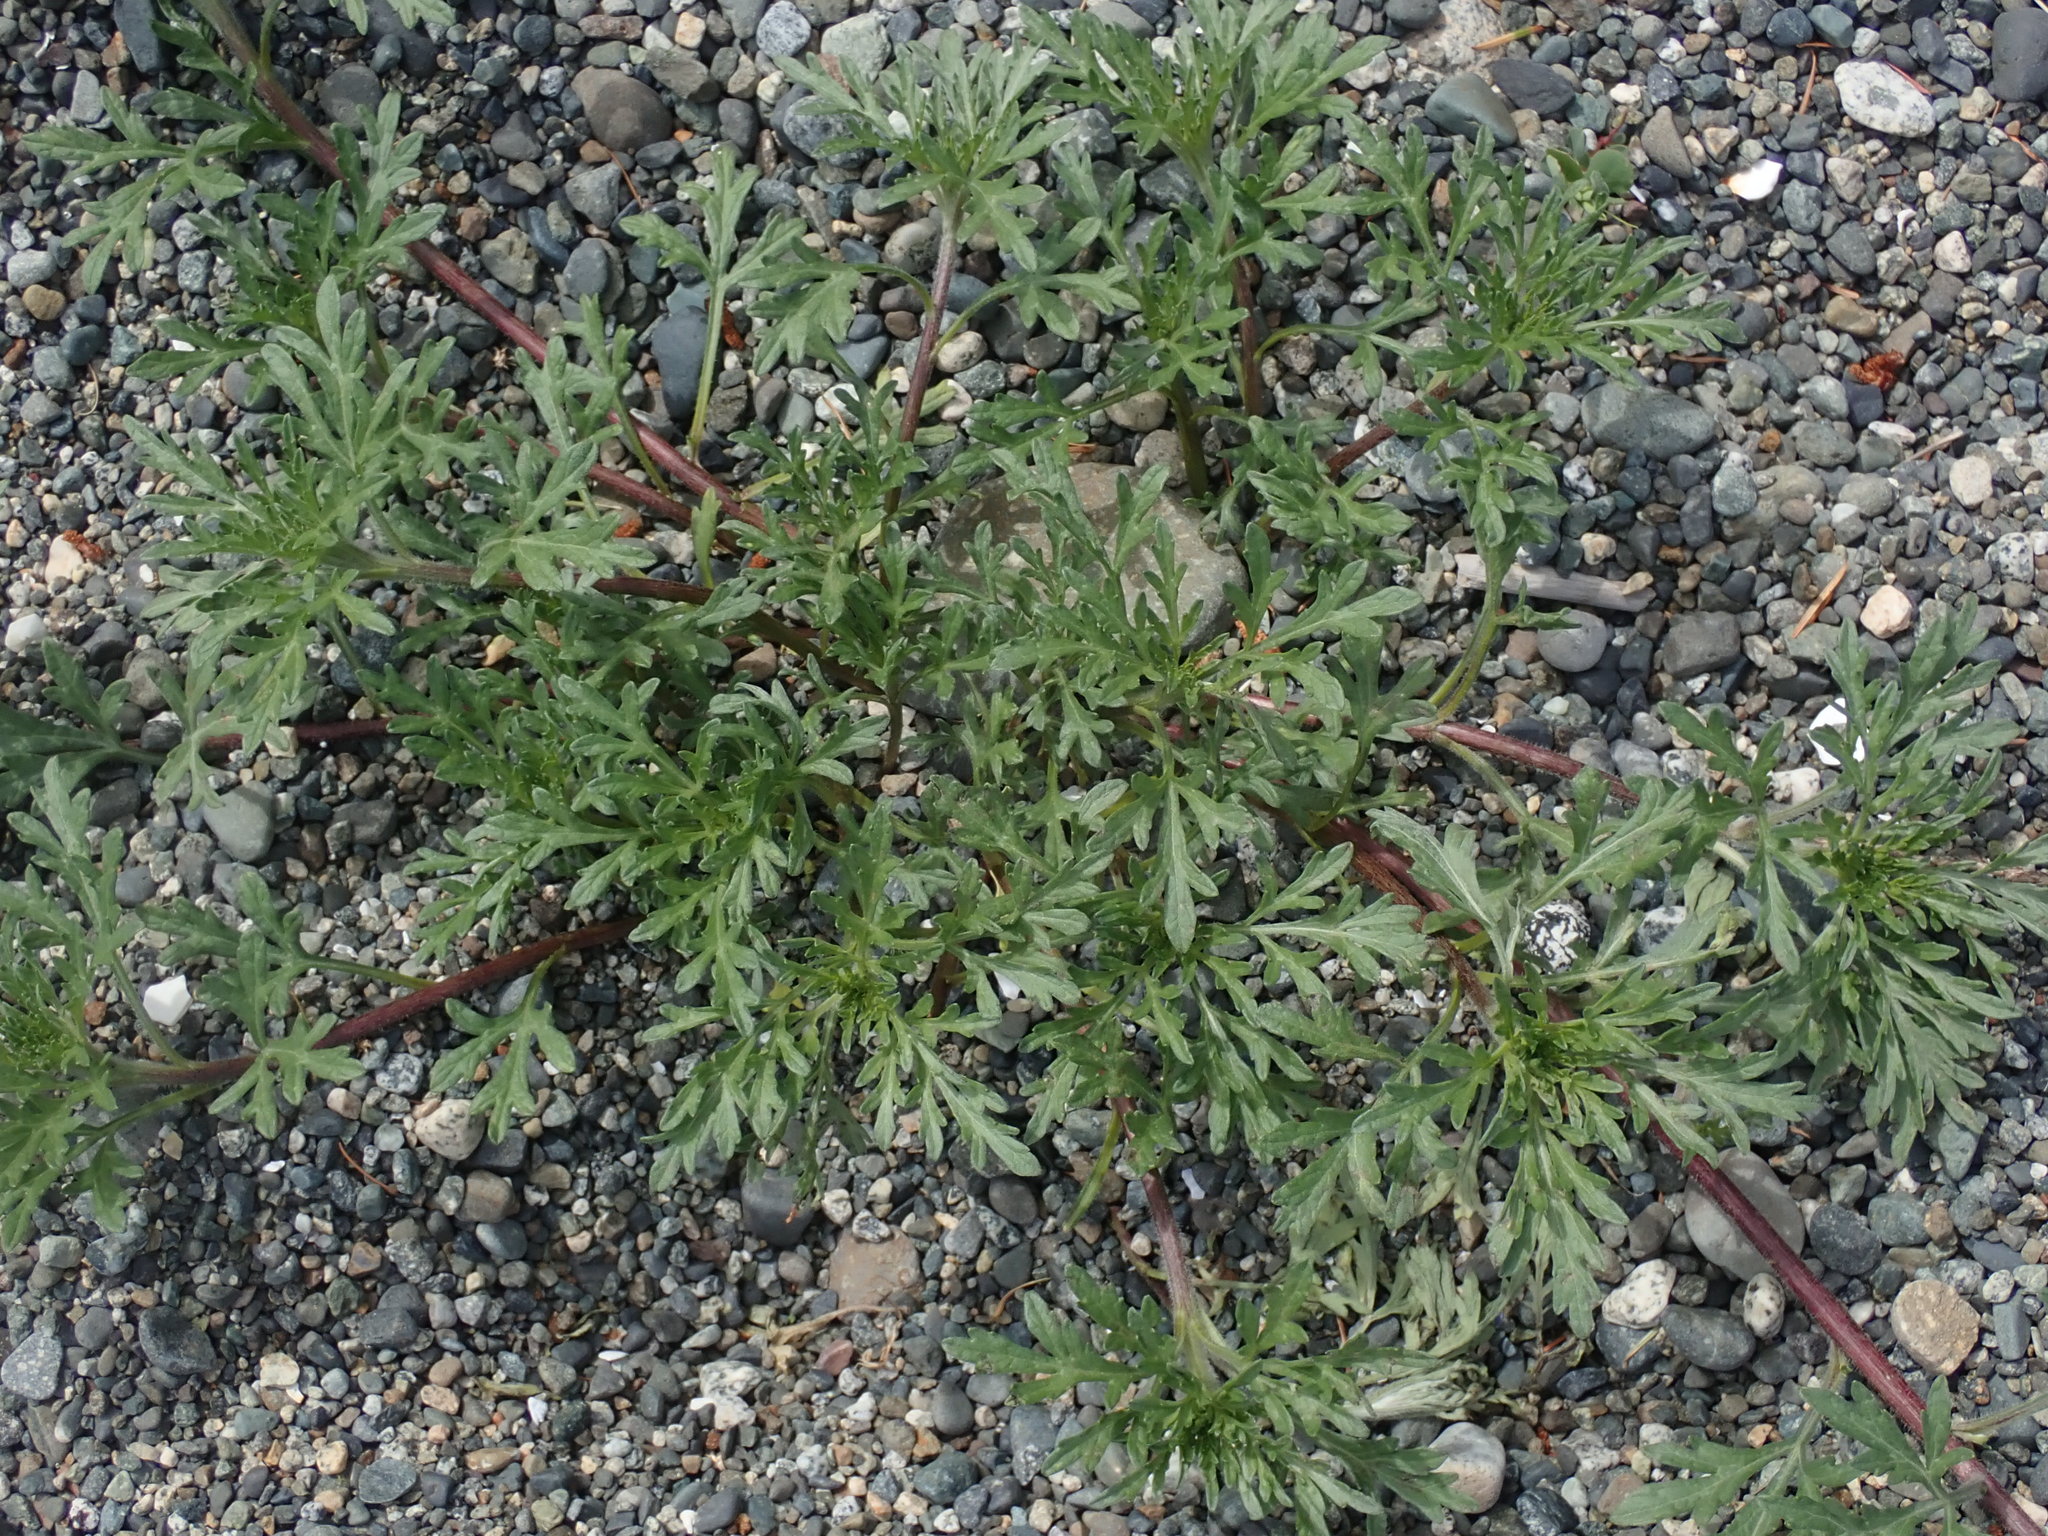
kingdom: Plantae
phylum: Tracheophyta
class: Magnoliopsida
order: Asterales
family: Asteraceae
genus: Ambrosia
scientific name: Ambrosia chamissonis
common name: Beachbur
